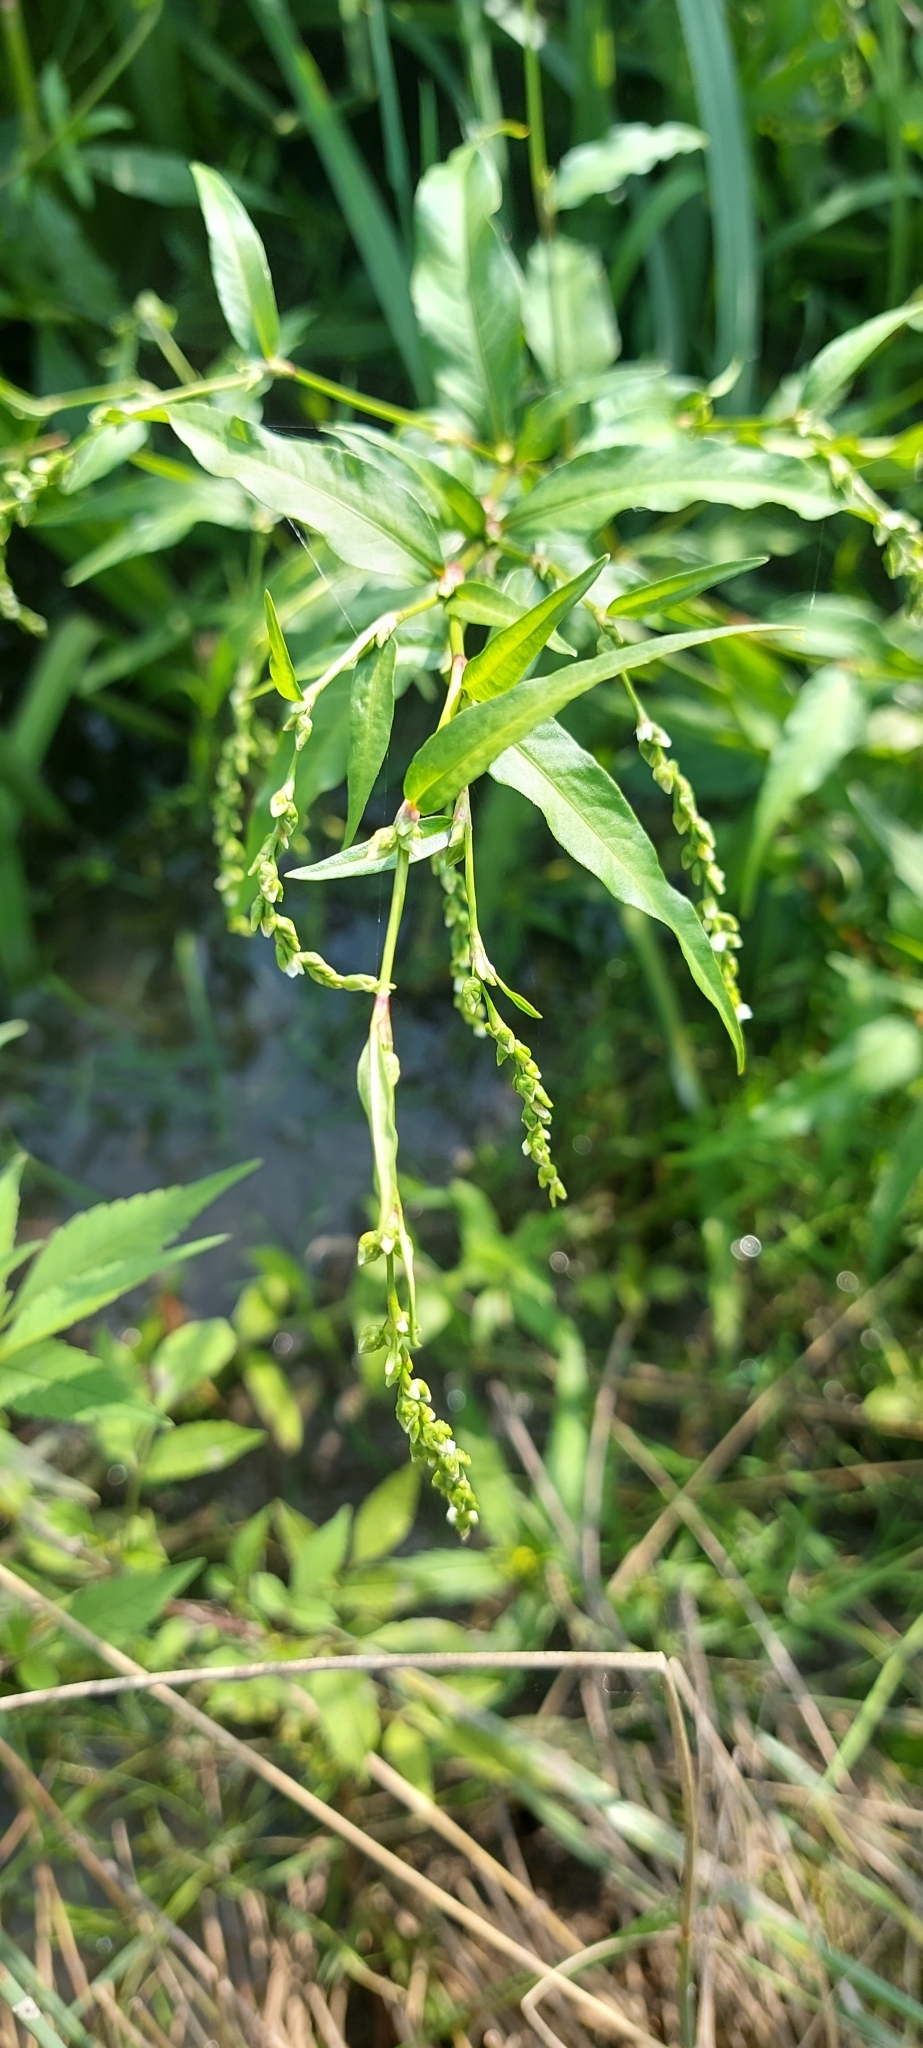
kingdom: Plantae
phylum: Tracheophyta
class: Magnoliopsida
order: Caryophyllales
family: Polygonaceae
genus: Persicaria
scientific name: Persicaria hydropiper
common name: Water-pepper
